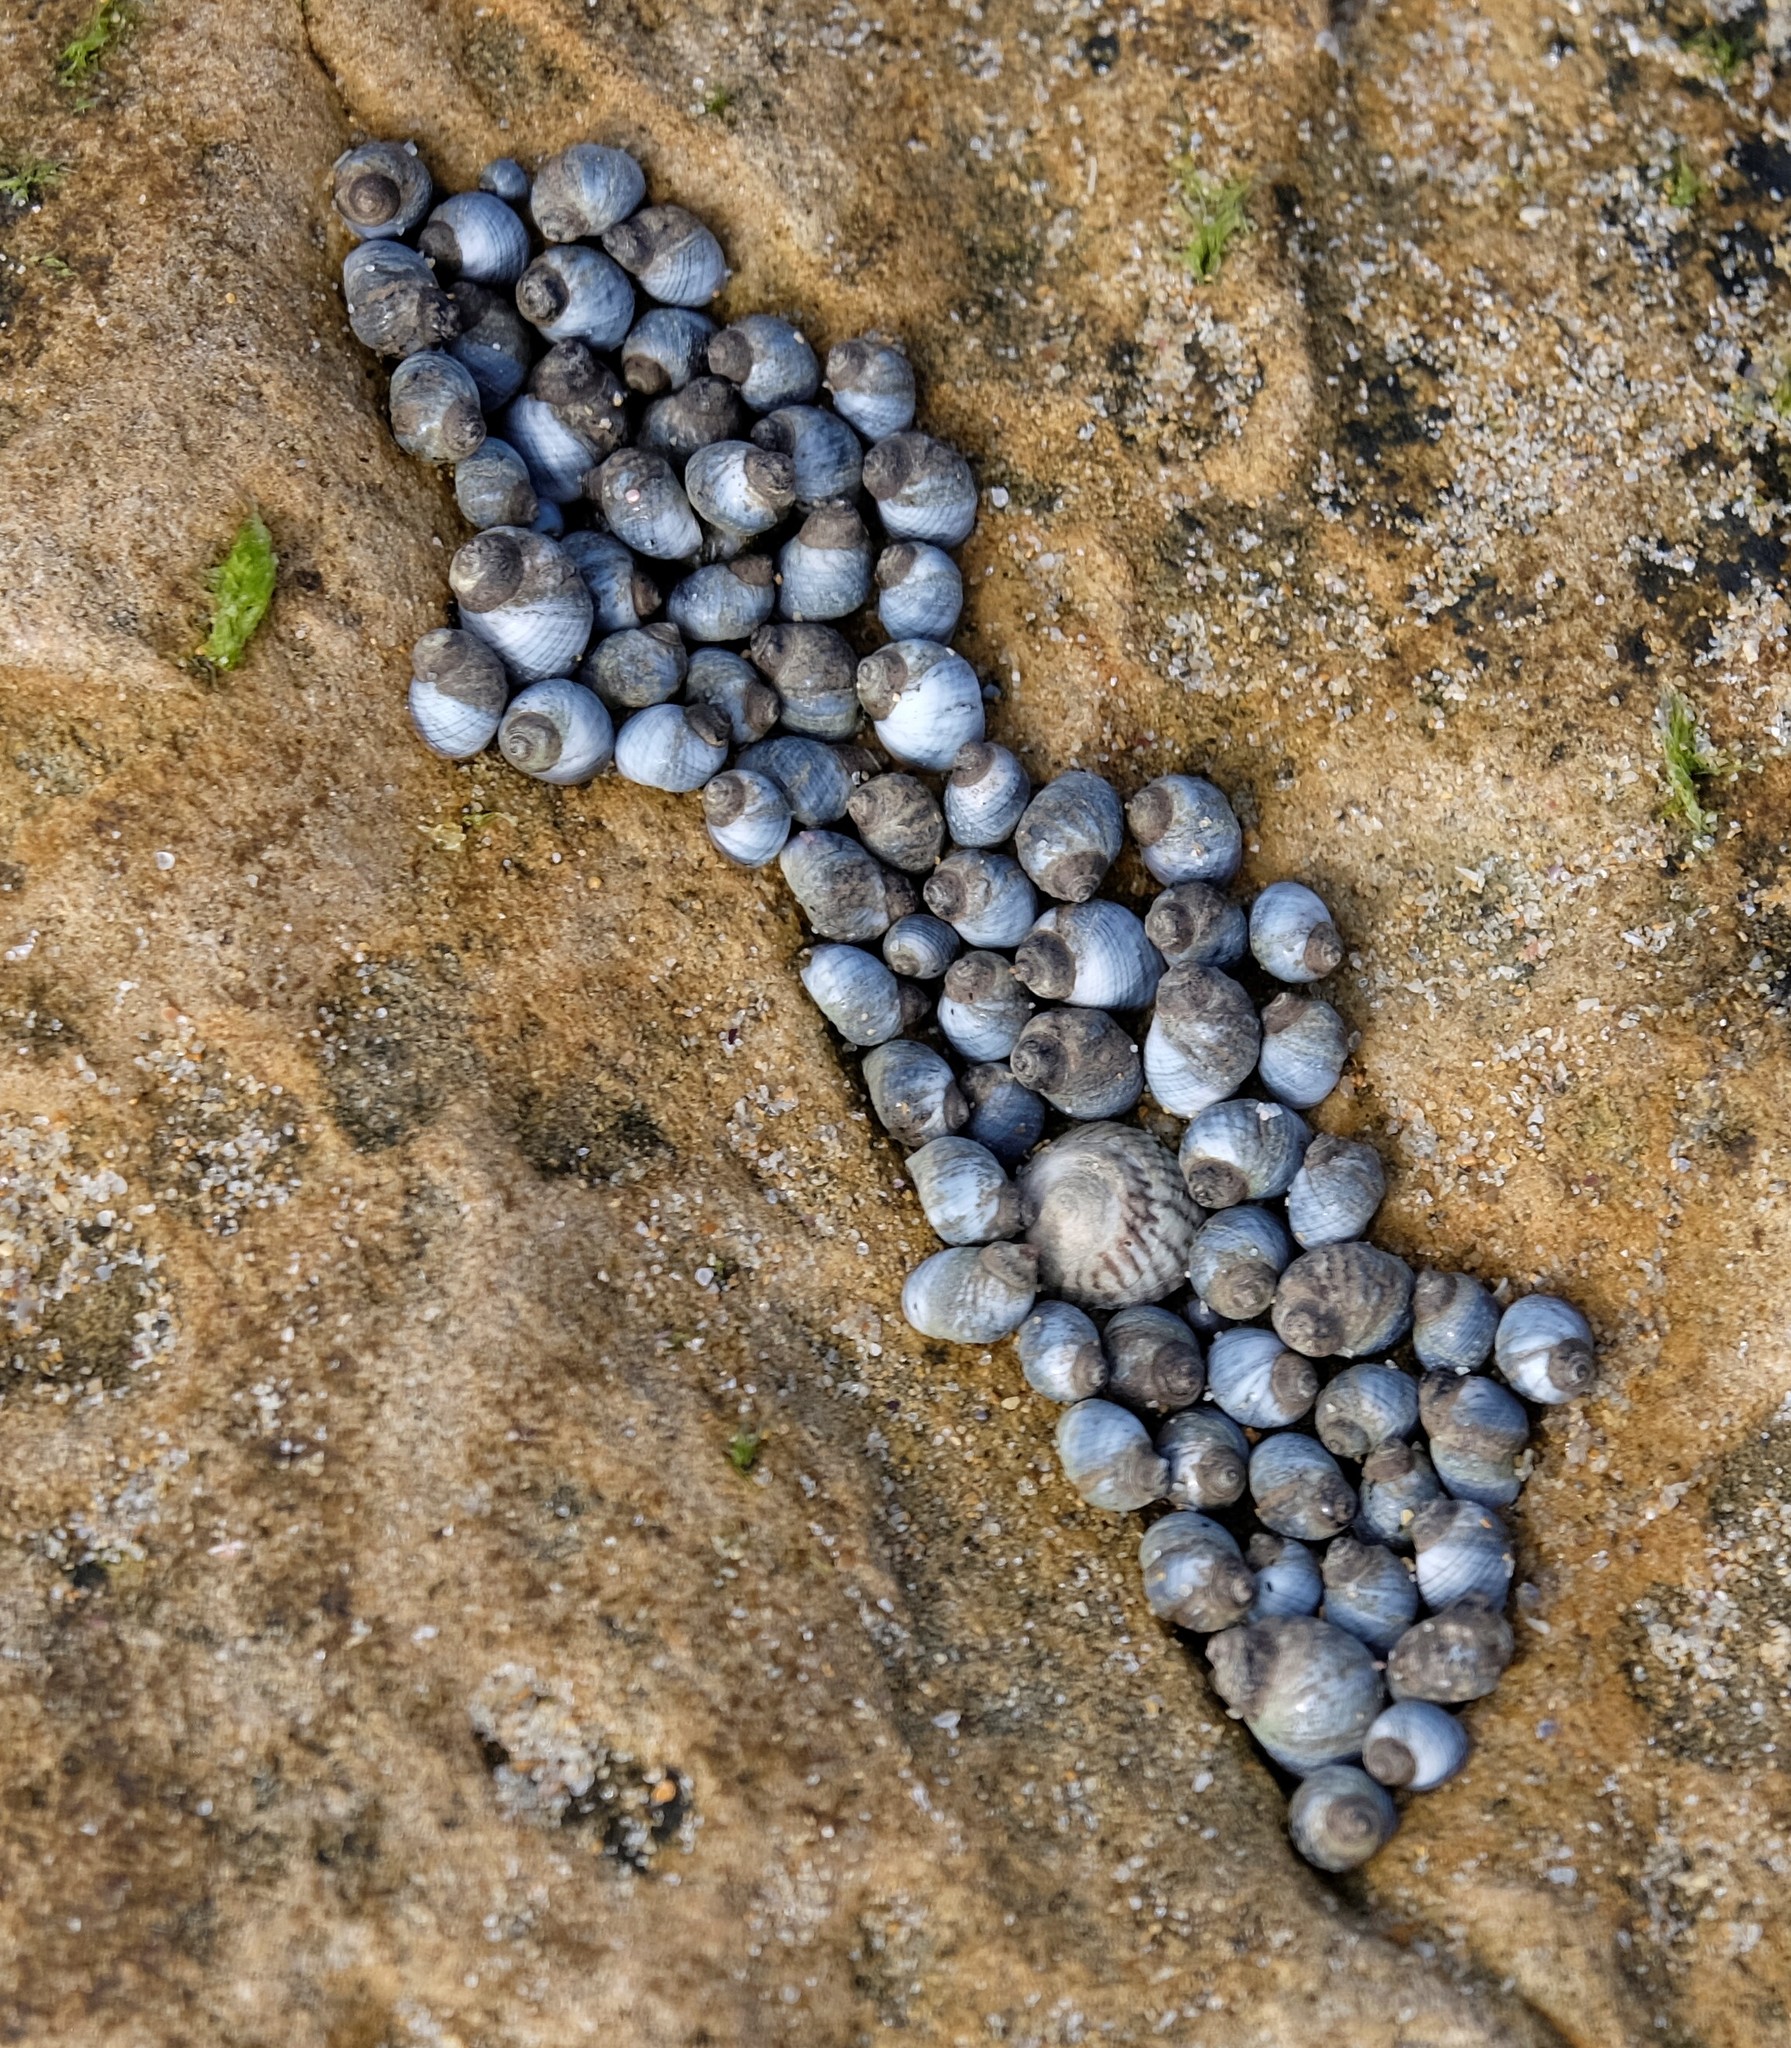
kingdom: Animalia
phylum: Mollusca
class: Gastropoda
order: Littorinimorpha
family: Littorinidae
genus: Austrolittorina
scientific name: Austrolittorina unifasciata
